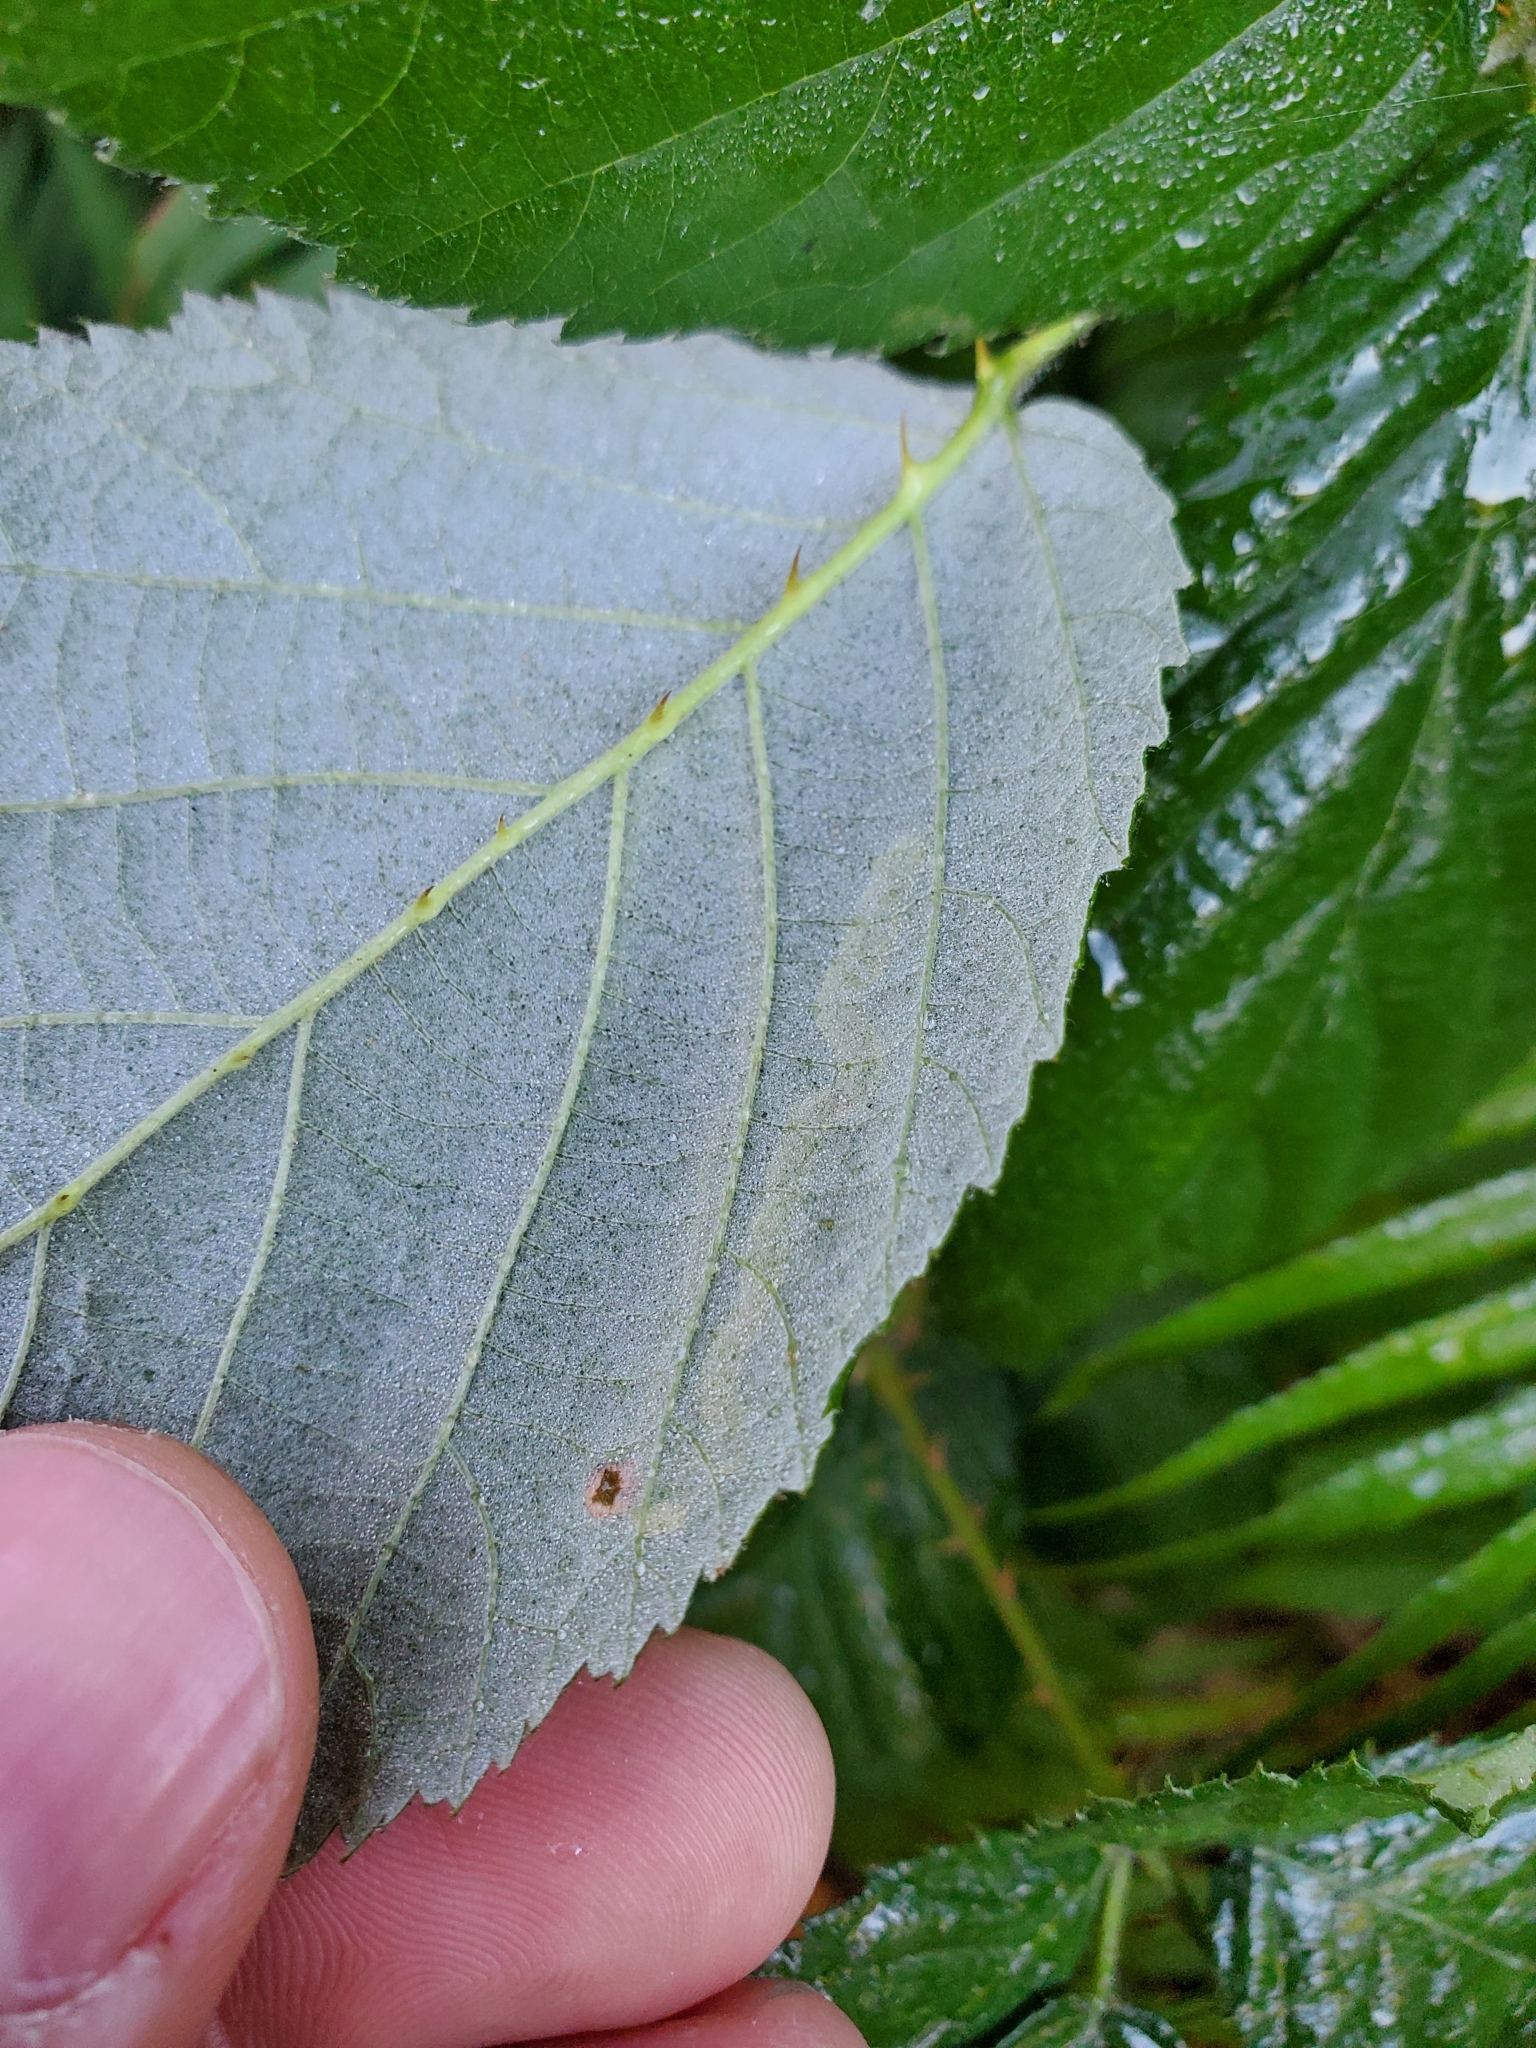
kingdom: Animalia
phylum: Arthropoda
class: Insecta
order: Diptera
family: Agromyzidae
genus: Agromyza
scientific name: Agromyza vockerothi
